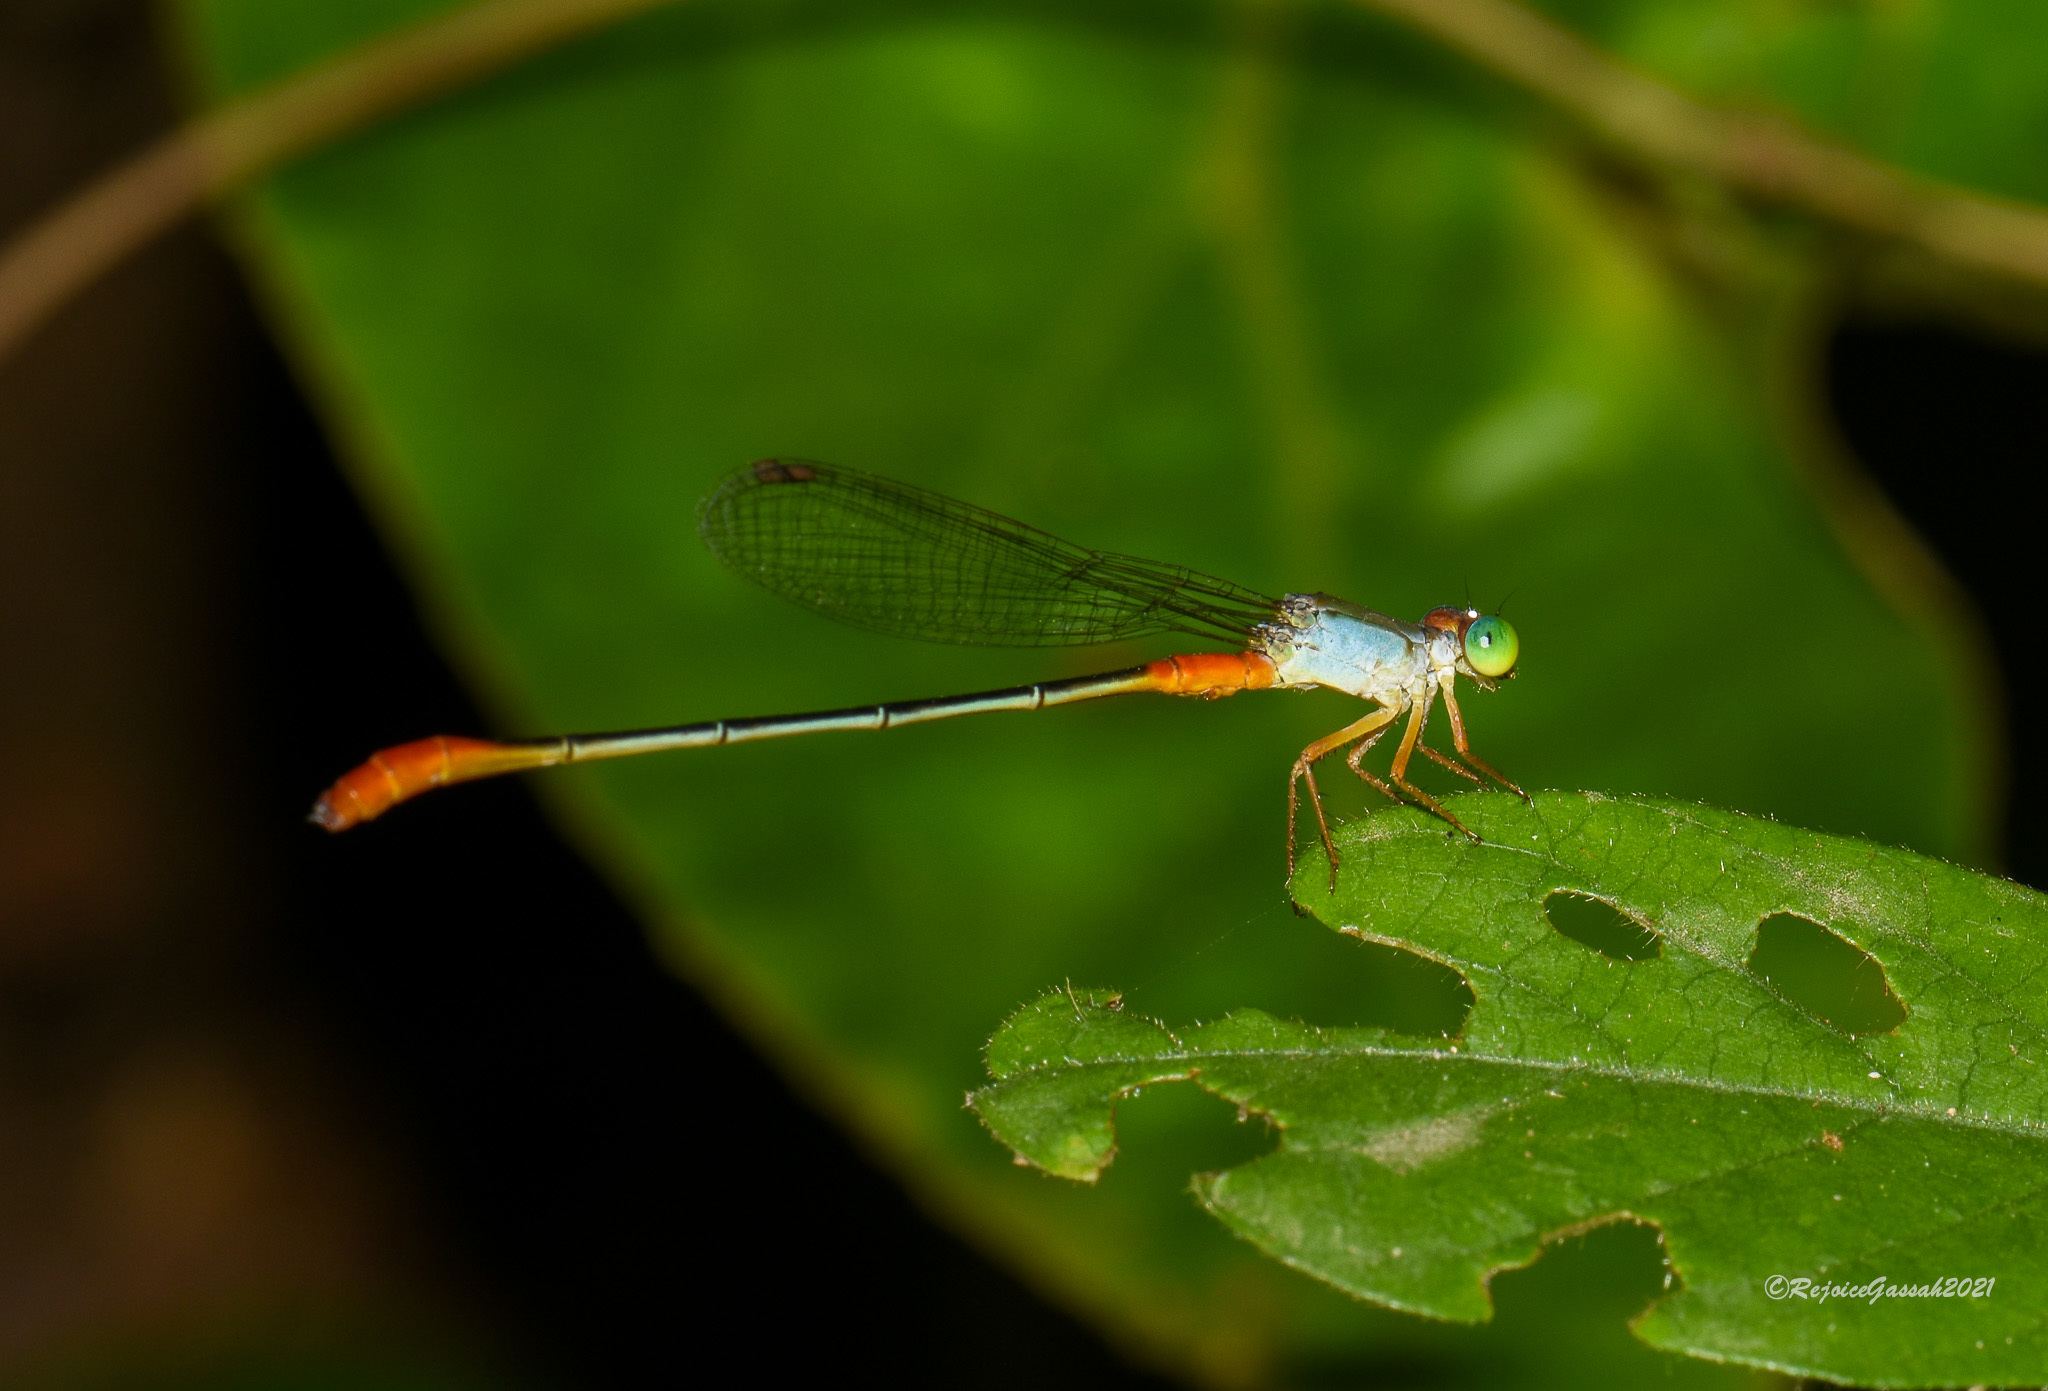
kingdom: Animalia
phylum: Arthropoda
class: Insecta
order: Odonata
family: Coenagrionidae
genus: Ceriagrion
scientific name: Ceriagrion cerinorubellum
